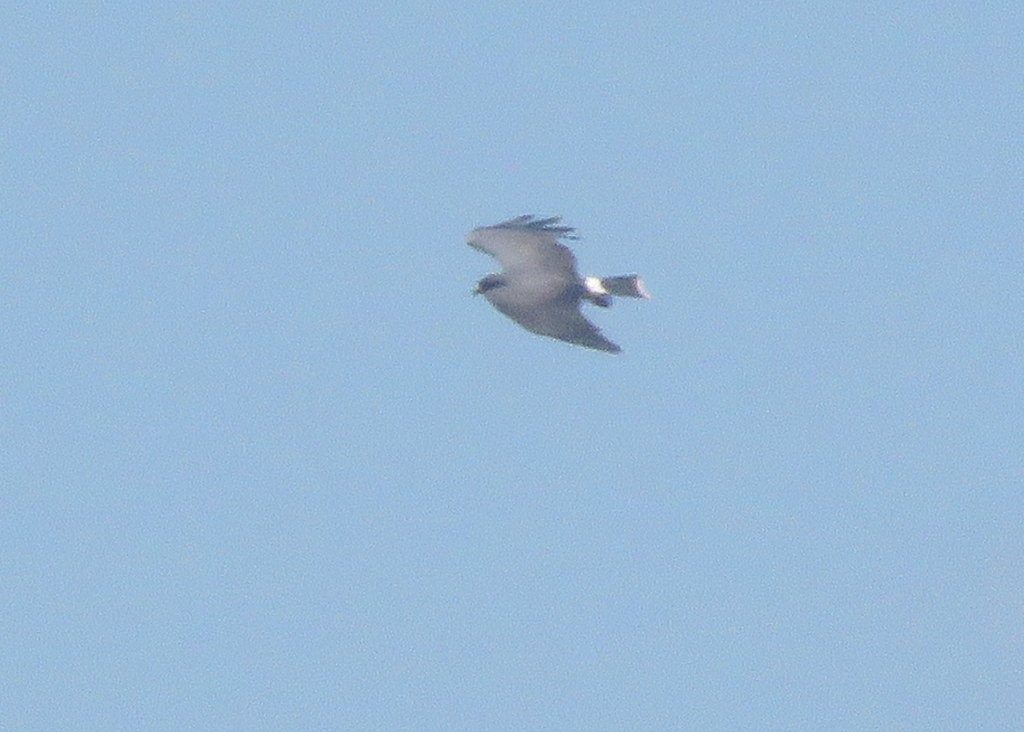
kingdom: Animalia
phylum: Chordata
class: Aves
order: Accipitriformes
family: Accipitridae
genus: Rostrhamus
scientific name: Rostrhamus sociabilis
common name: Snail kite
